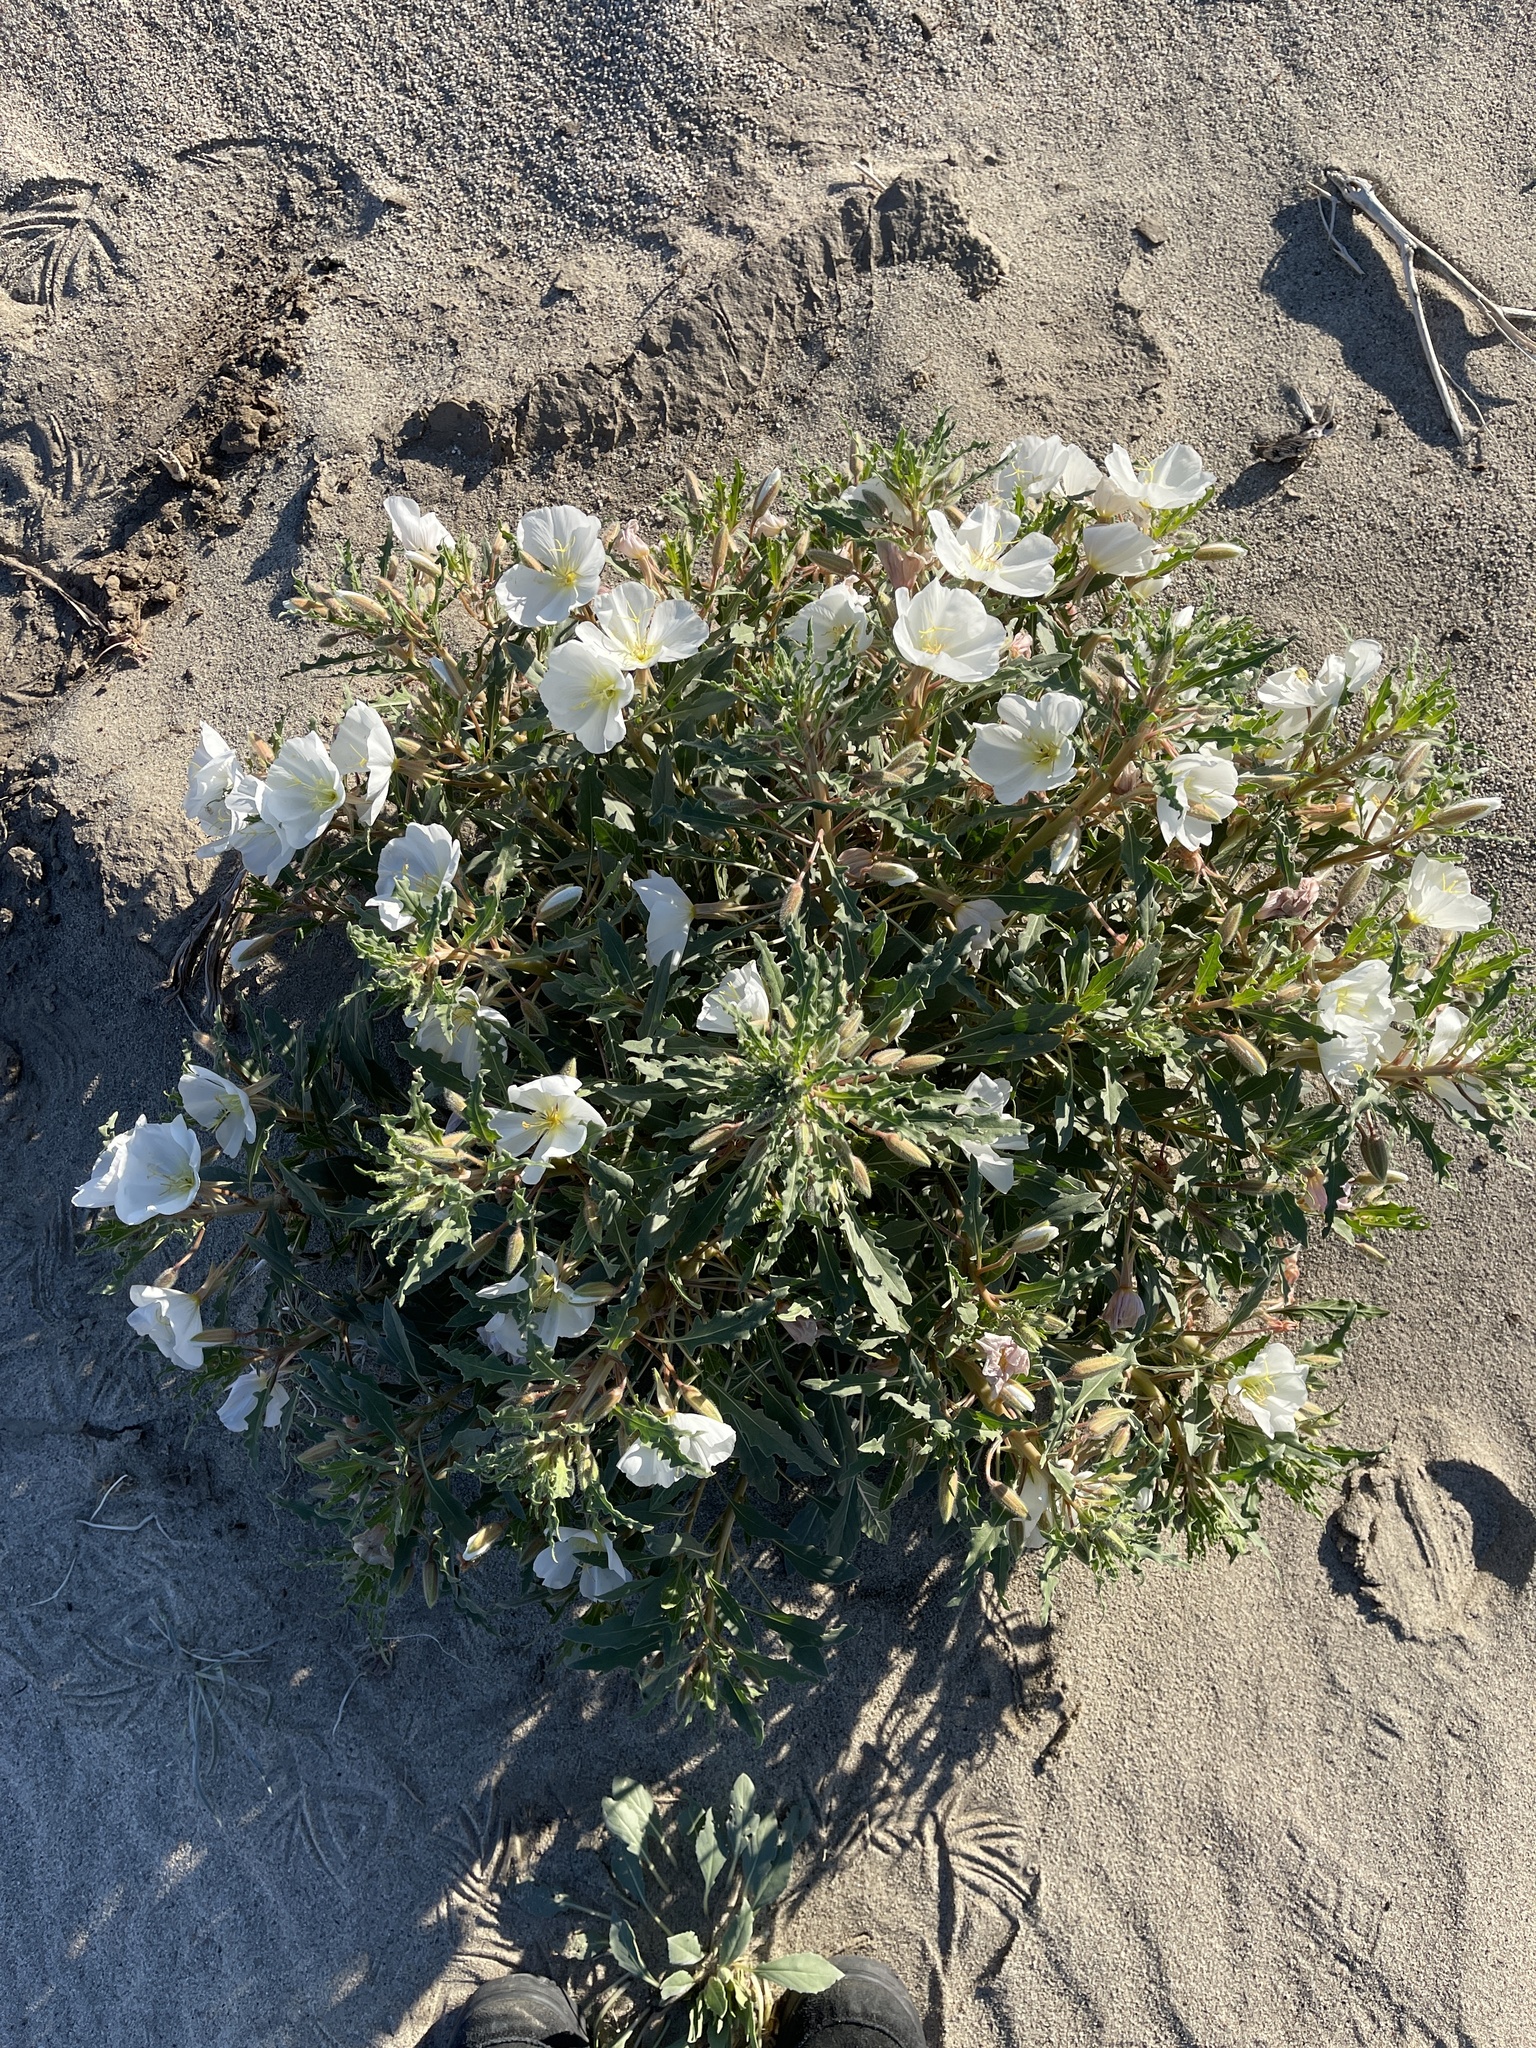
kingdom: Plantae
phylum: Tracheophyta
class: Magnoliopsida
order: Myrtales
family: Onagraceae
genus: Oenothera
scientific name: Oenothera deltoides
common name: Basket evening-primrose
